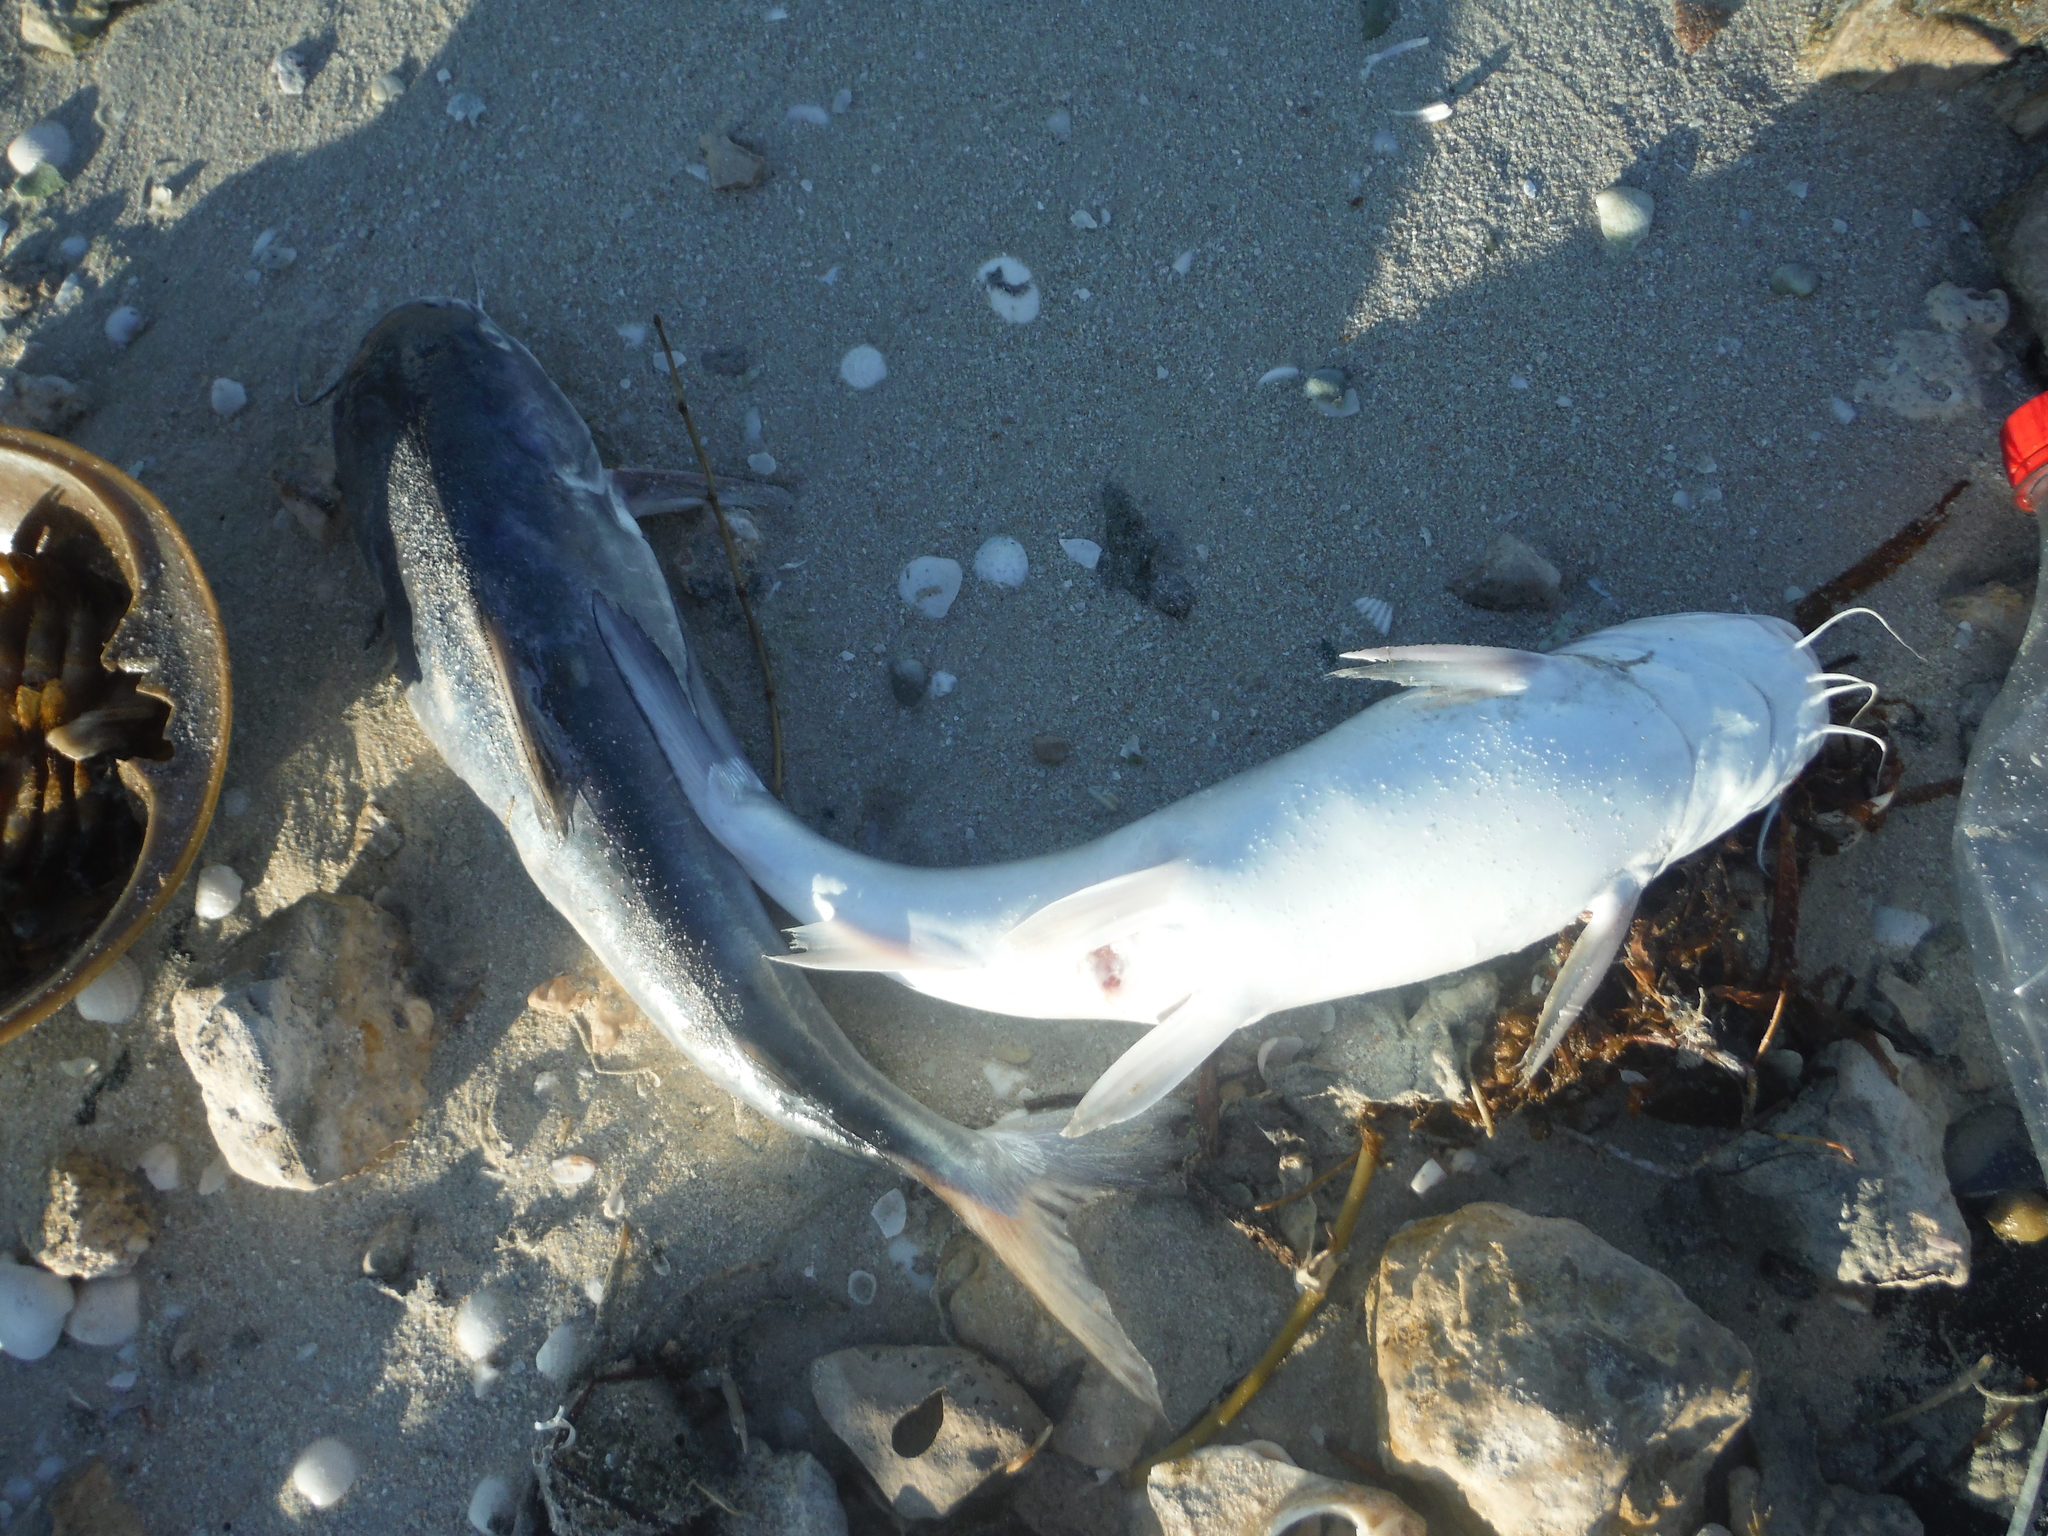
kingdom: Animalia
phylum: Chordata
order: Siluriformes
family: Ariidae
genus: Ariopsis
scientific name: Ariopsis felis
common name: Hardhead catfish
